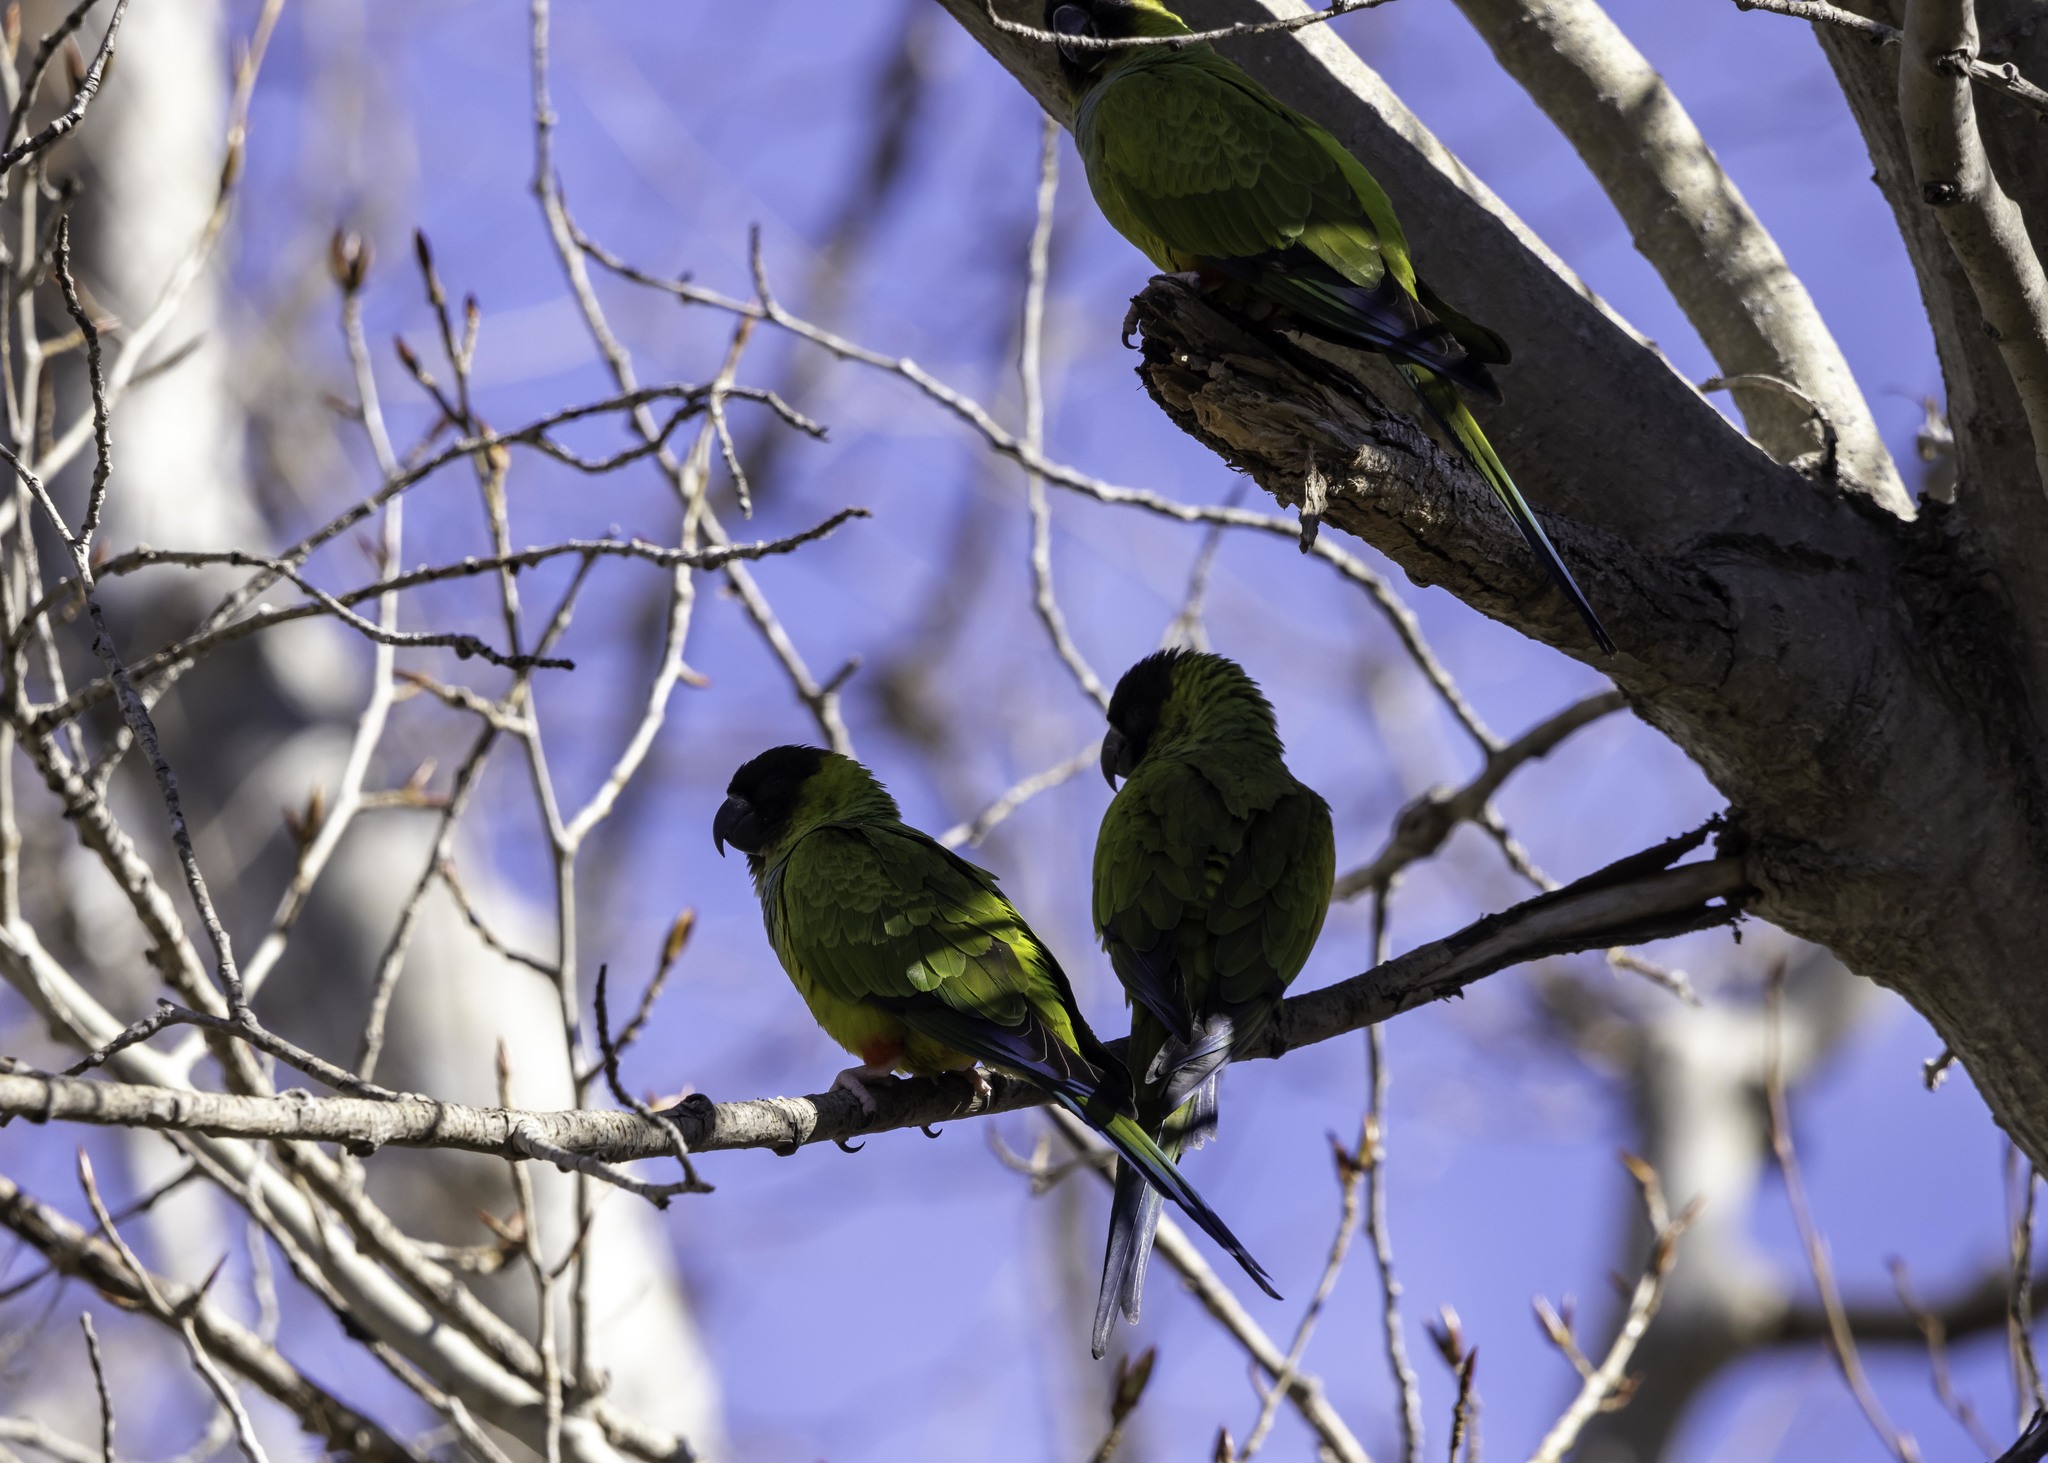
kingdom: Animalia
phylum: Chordata
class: Aves
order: Psittaciformes
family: Psittacidae
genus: Nandayus
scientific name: Nandayus nenday
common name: Nanday parakeet
